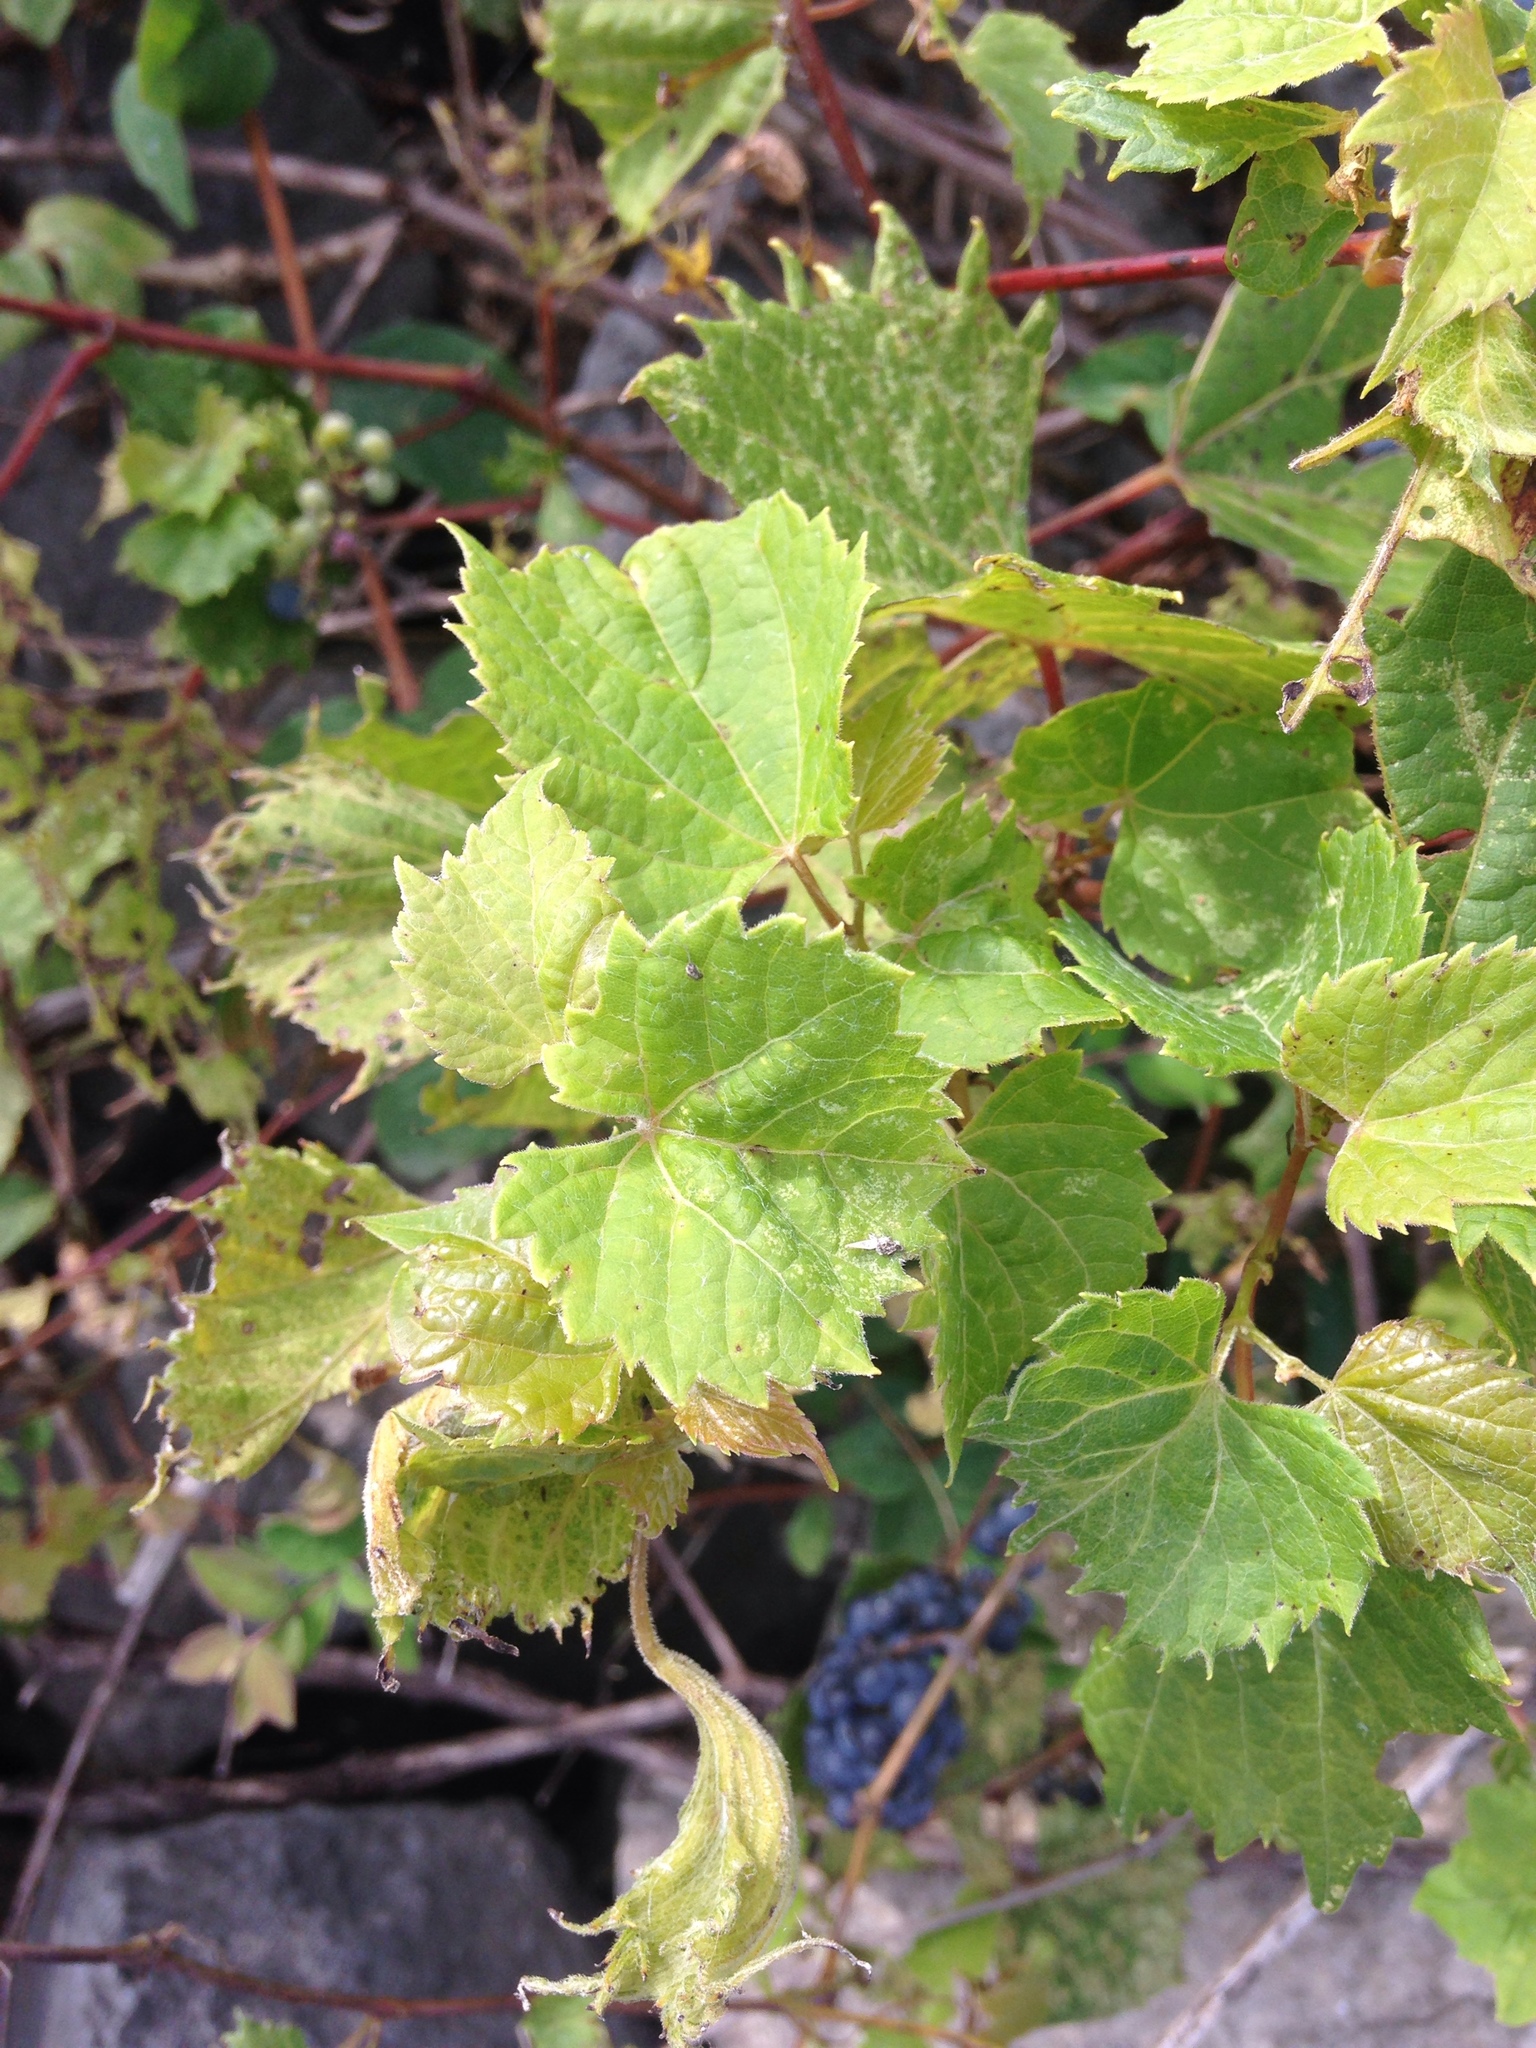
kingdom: Plantae
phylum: Tracheophyta
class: Magnoliopsida
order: Vitales
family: Vitaceae
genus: Vitis
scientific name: Vitis riparia
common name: Frost grape
